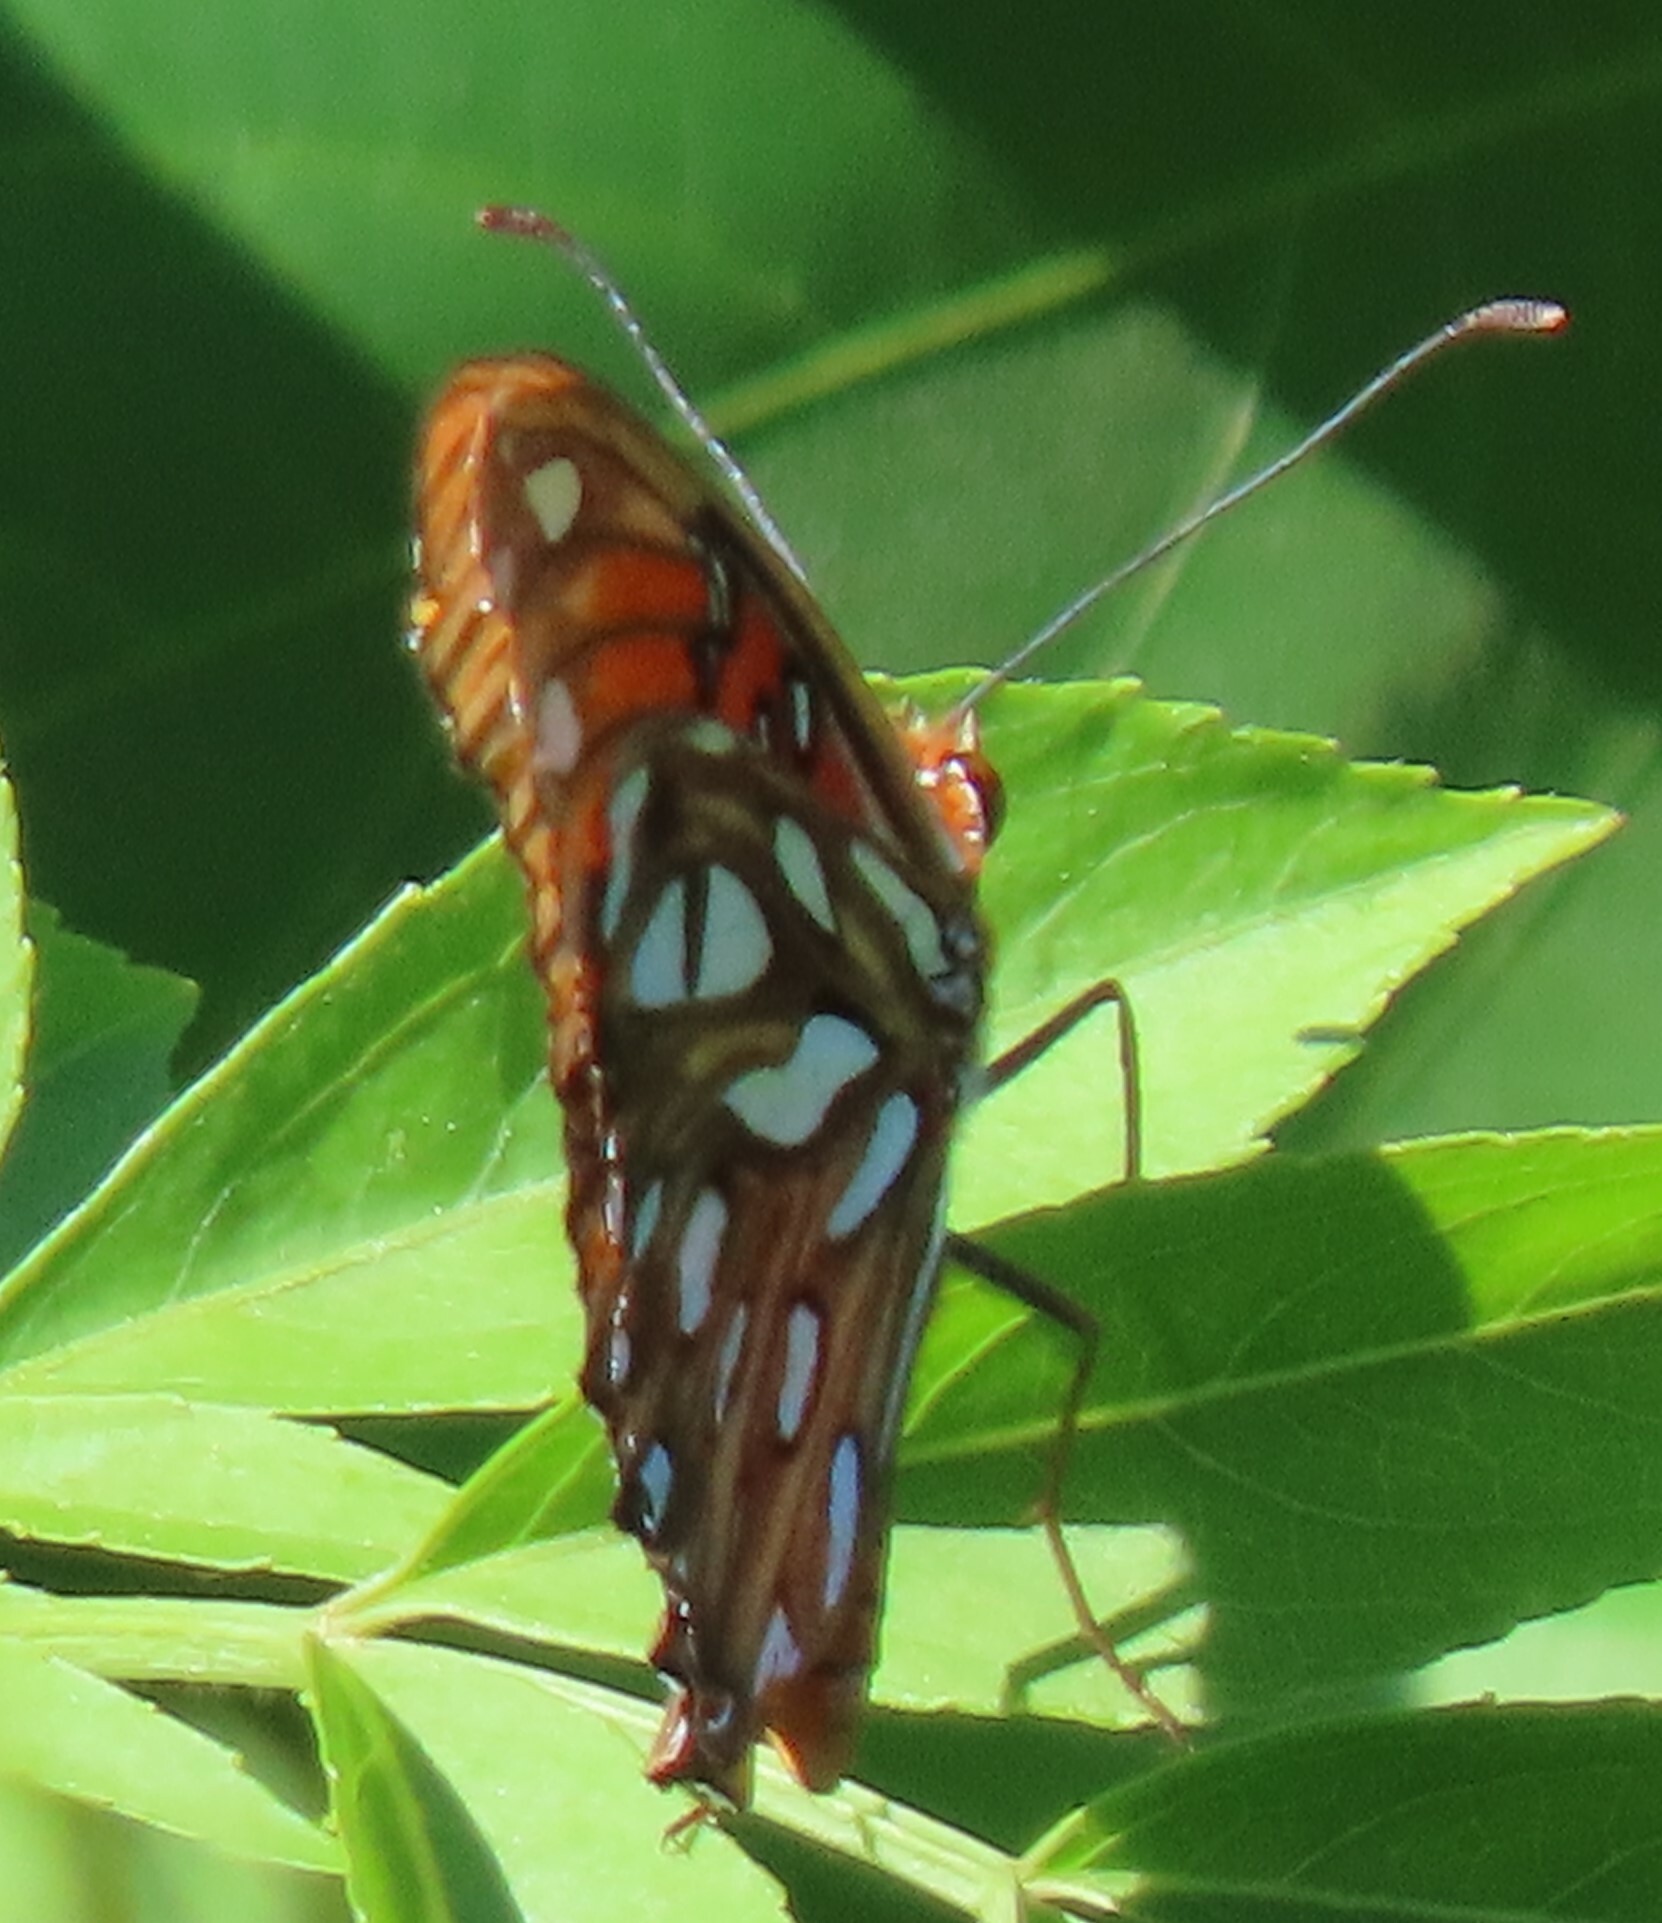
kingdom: Animalia
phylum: Arthropoda
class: Insecta
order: Lepidoptera
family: Nymphalidae
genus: Dione
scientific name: Dione vanillae
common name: Gulf fritillary
